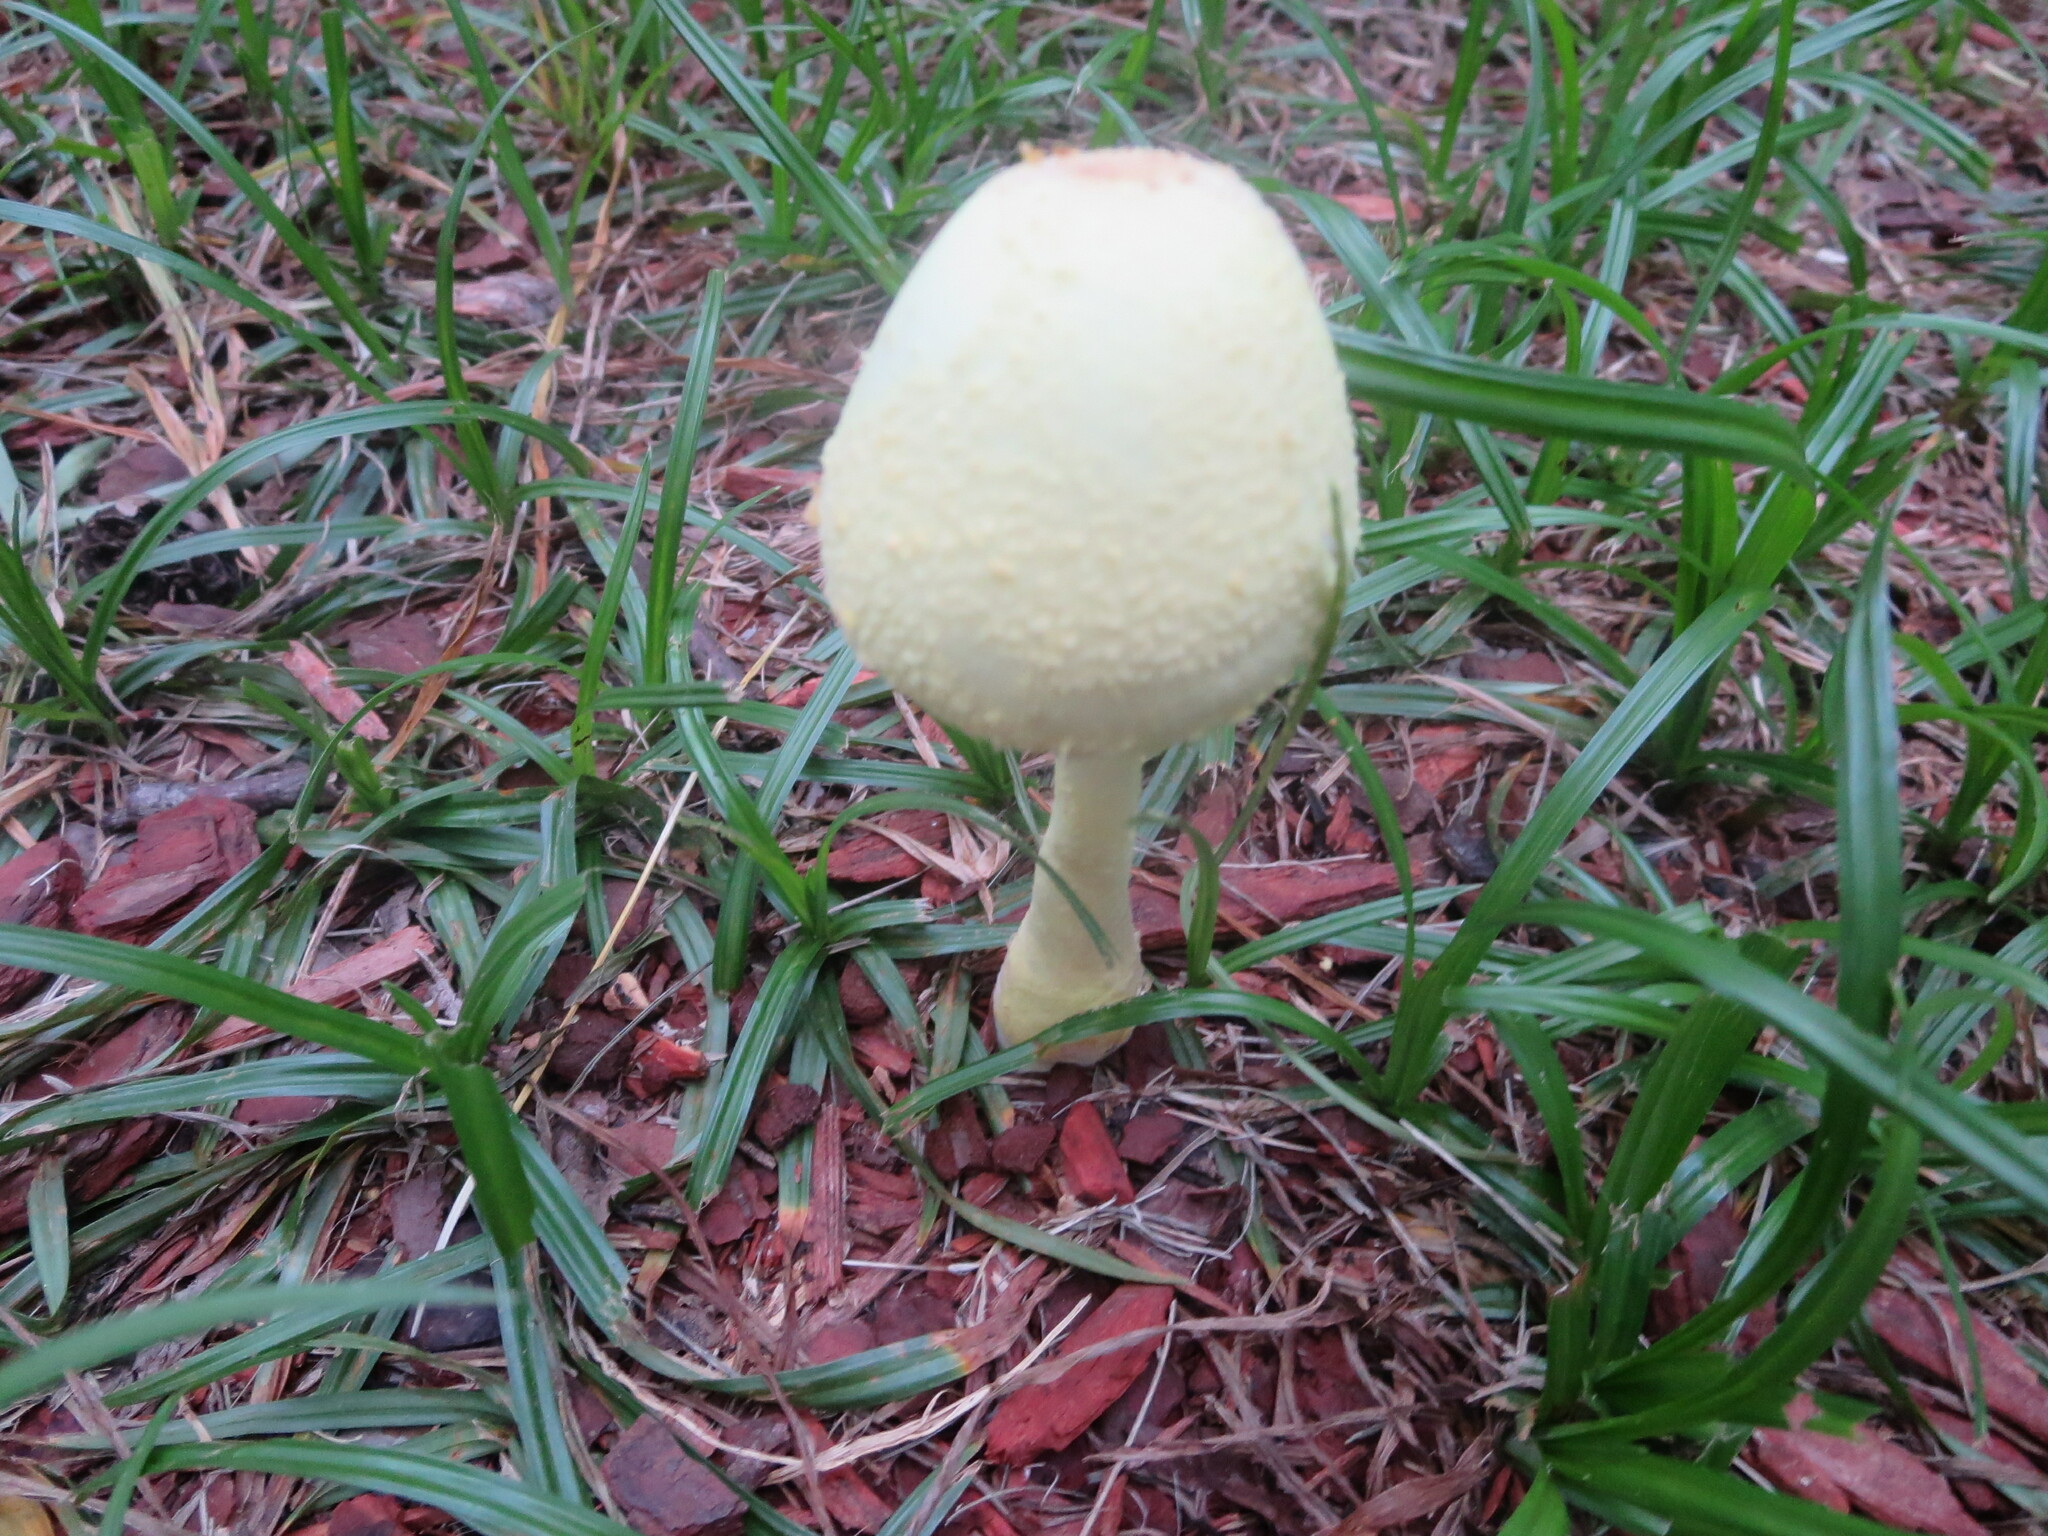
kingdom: Fungi
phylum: Basidiomycota
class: Agaricomycetes
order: Agaricales
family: Agaricaceae
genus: Leucocoprinus
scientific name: Leucocoprinus birnbaumii
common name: Plantpot dapperling
